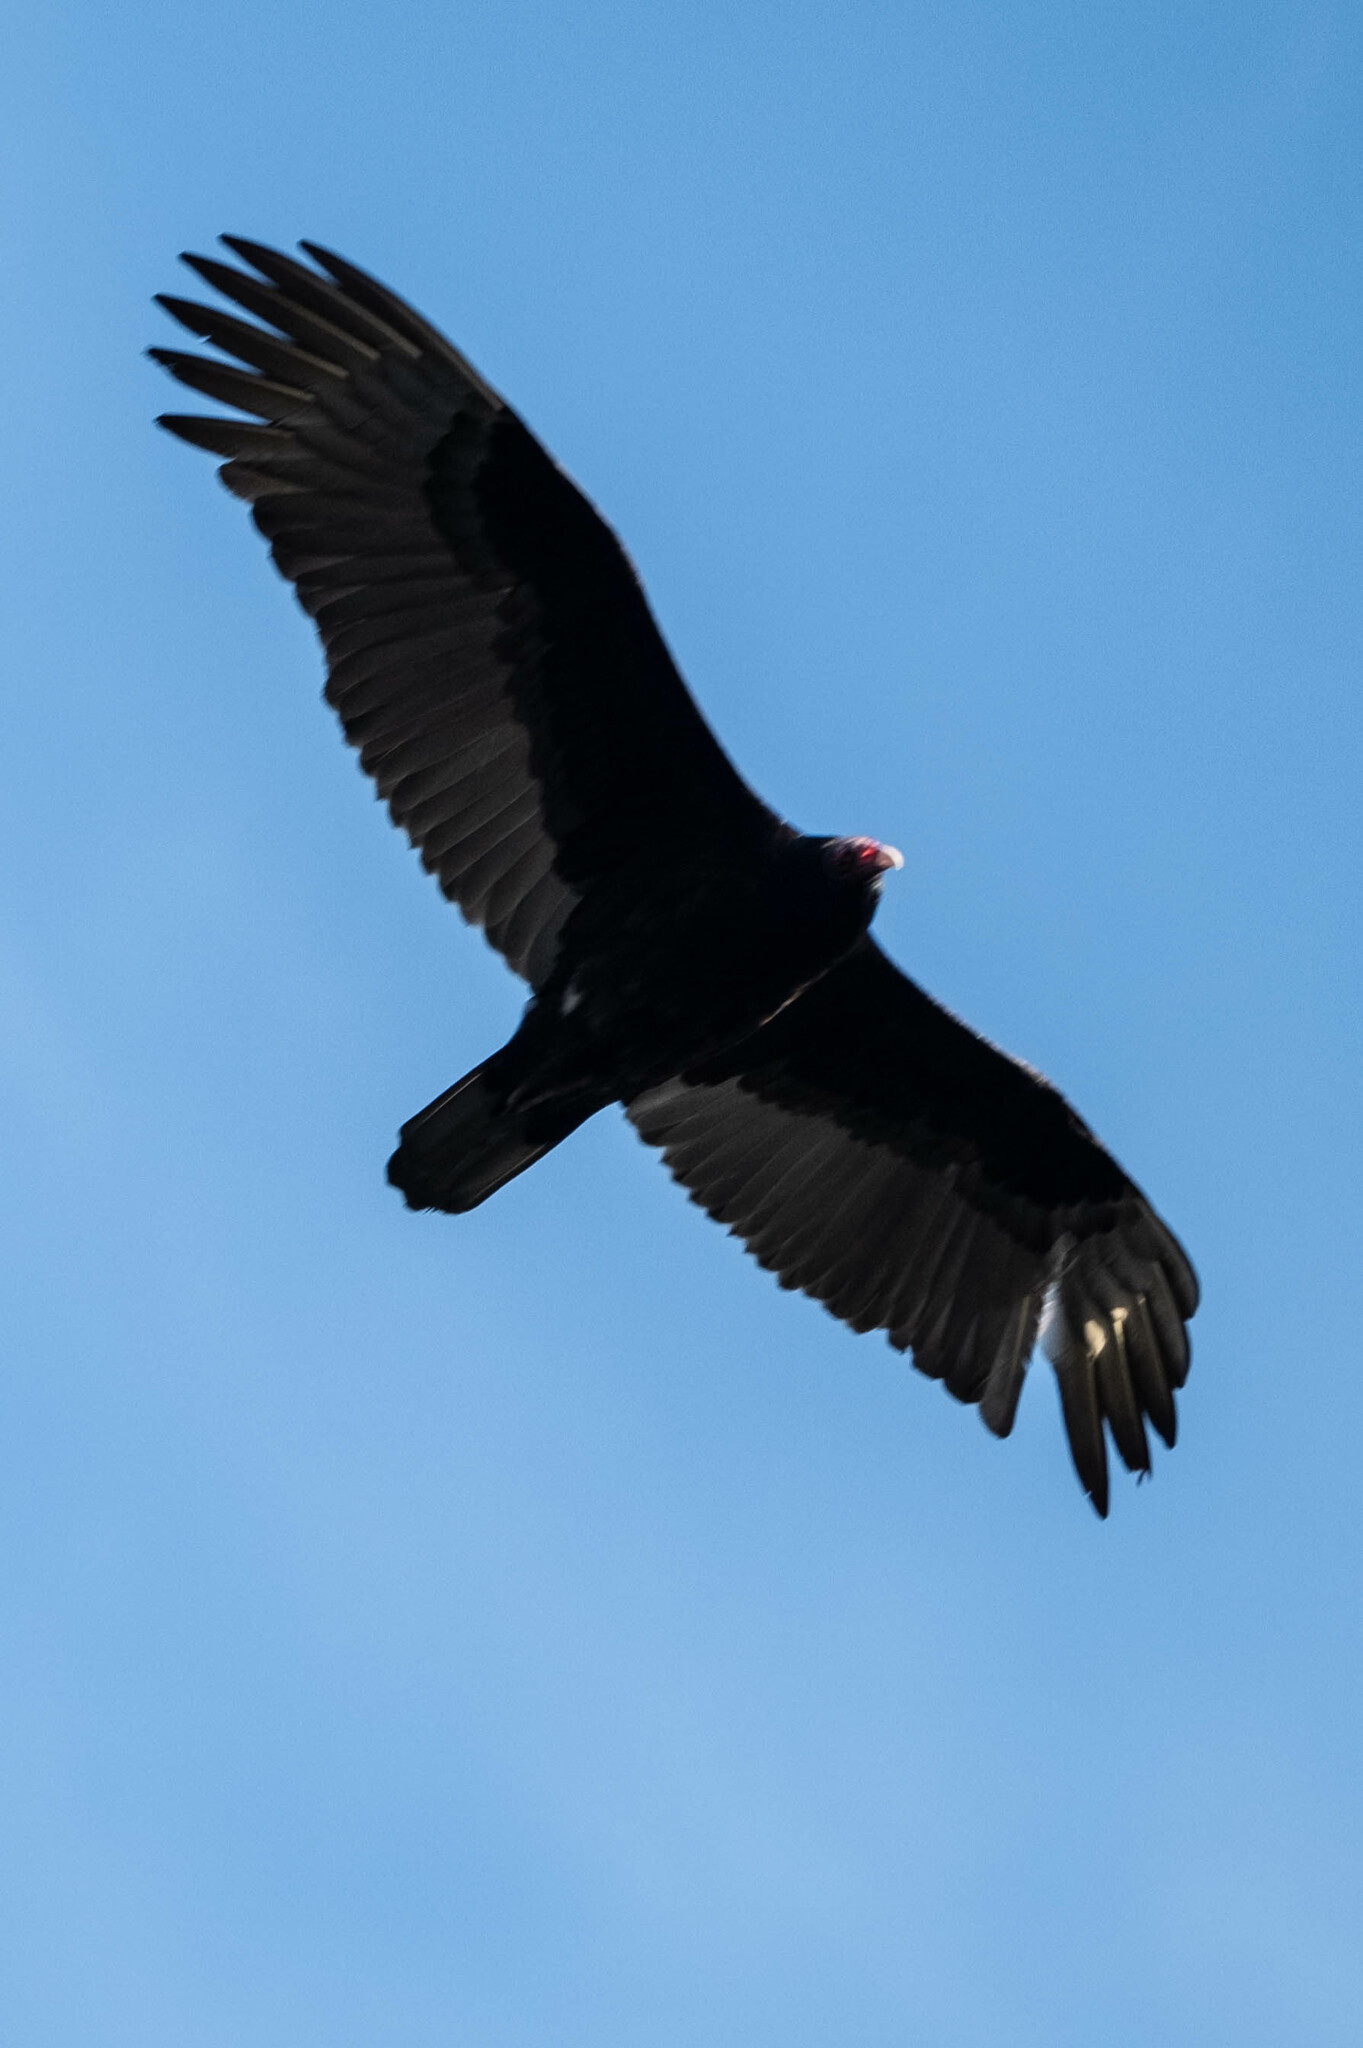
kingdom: Animalia
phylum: Chordata
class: Aves
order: Accipitriformes
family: Cathartidae
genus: Cathartes
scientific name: Cathartes aura
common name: Turkey vulture
